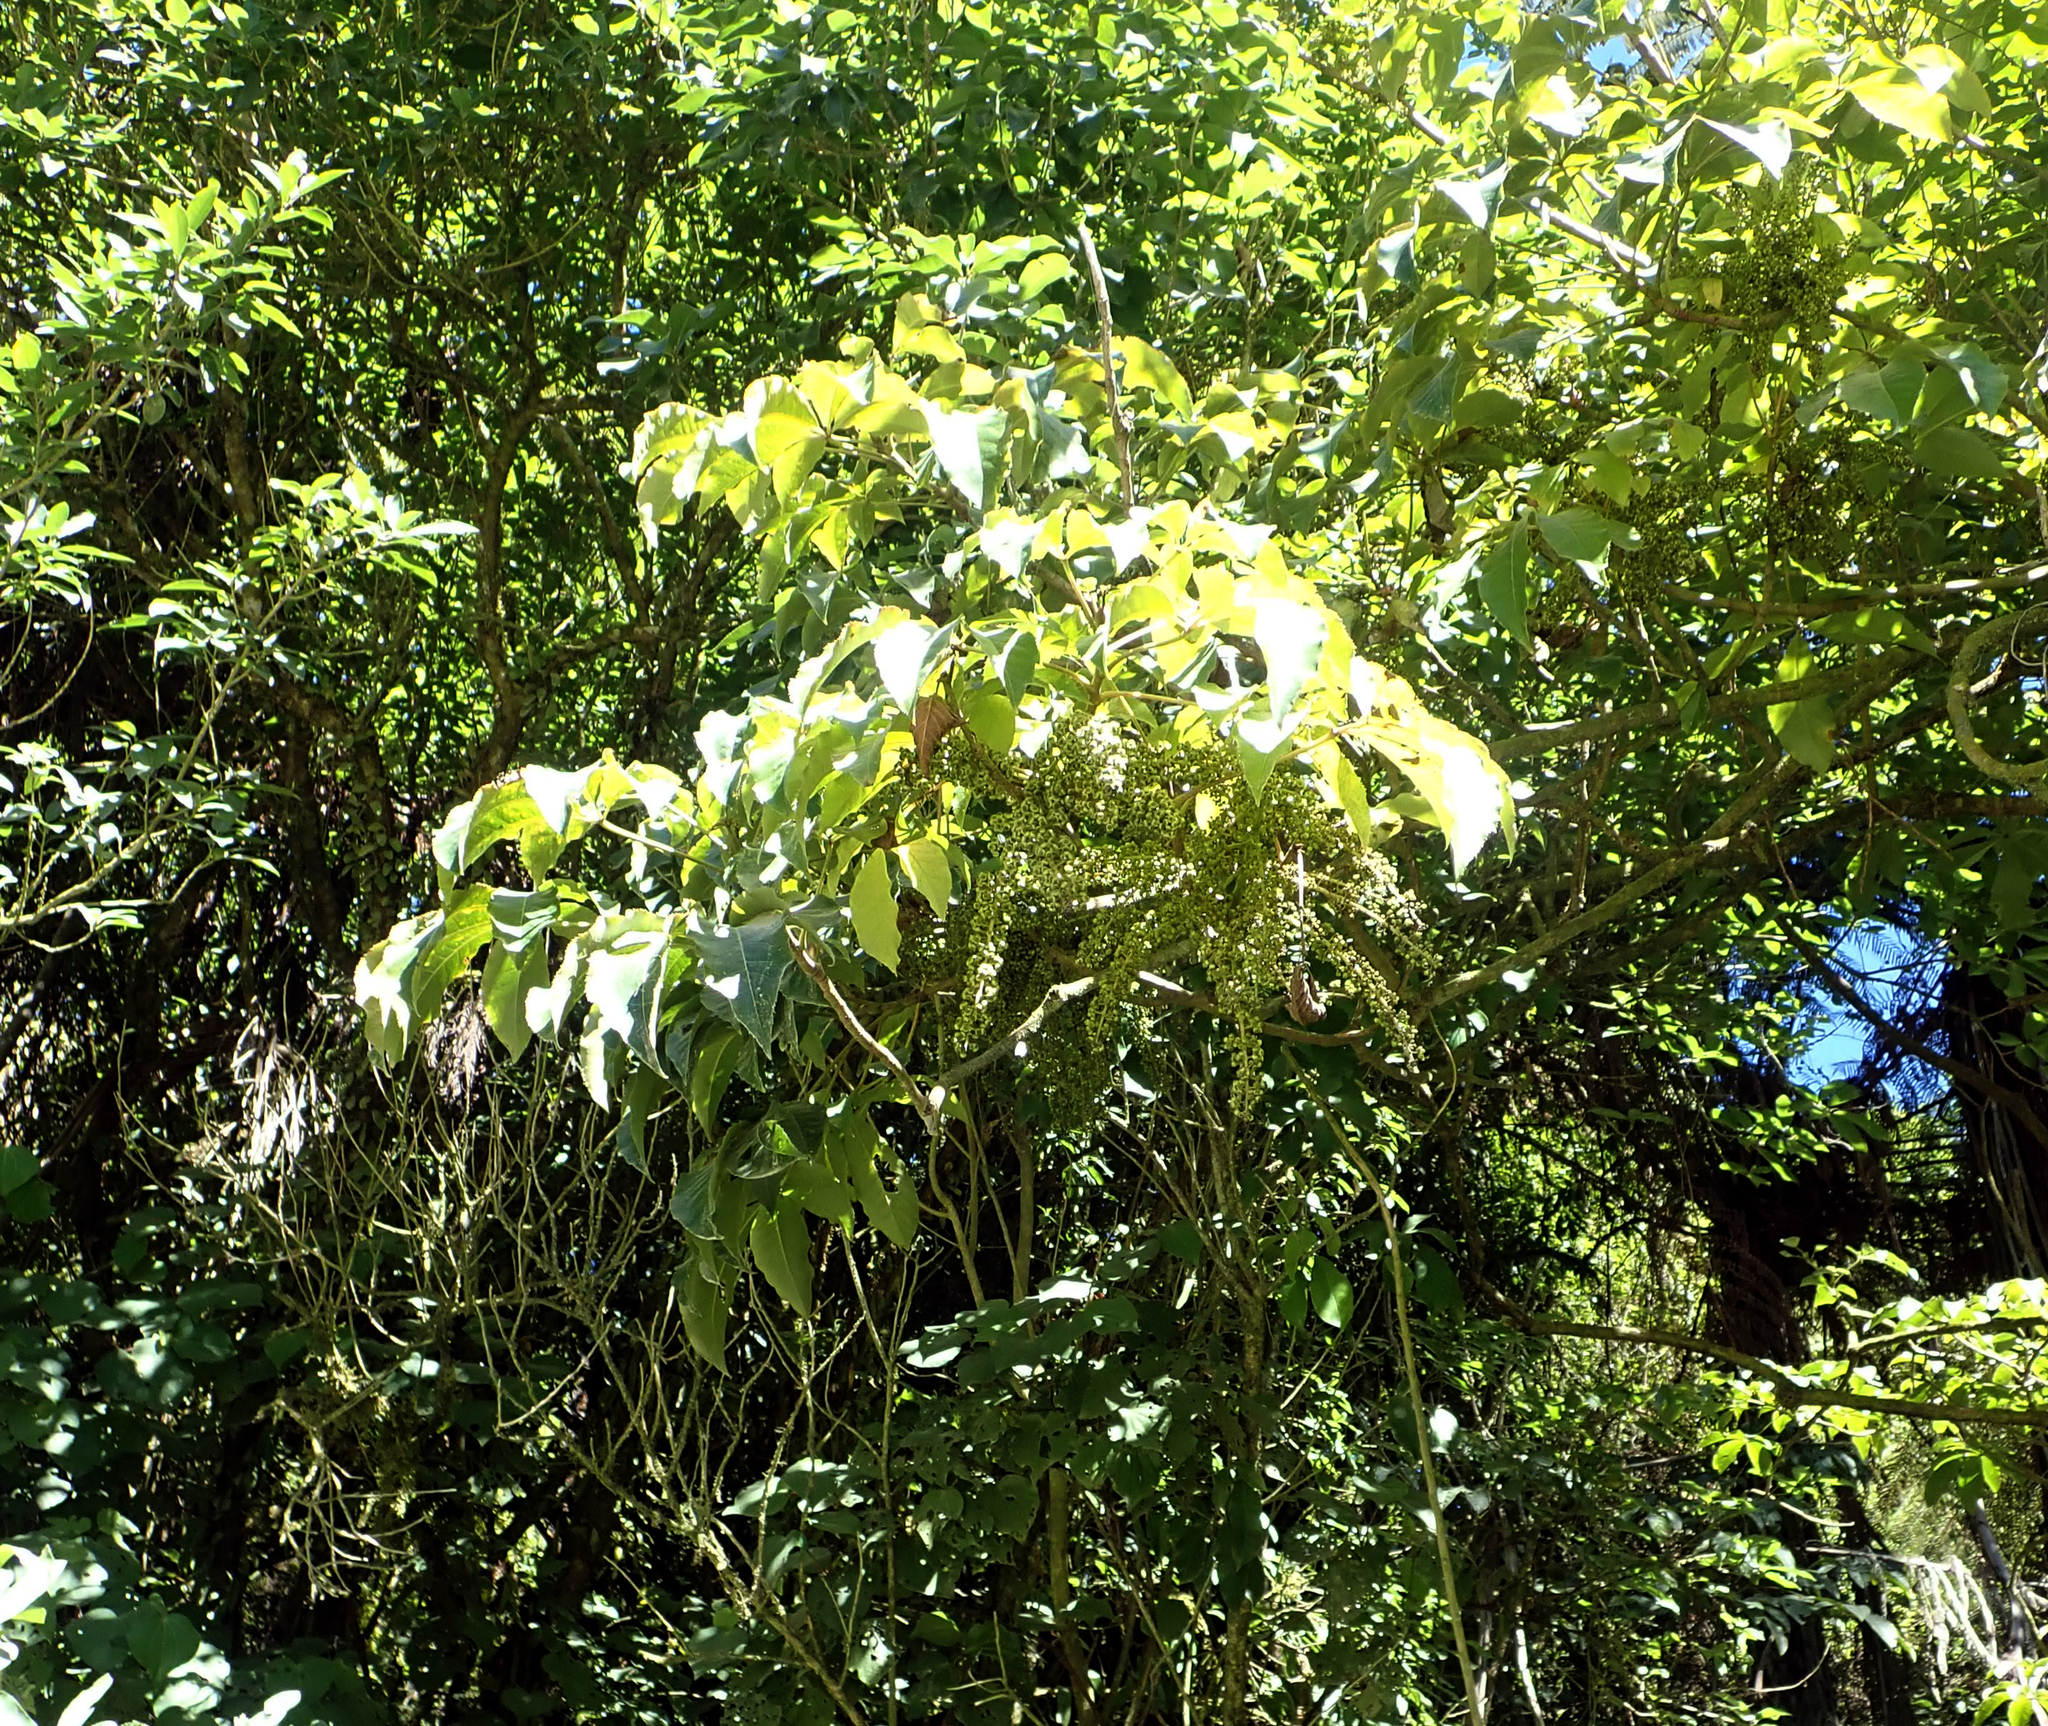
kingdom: Plantae
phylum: Tracheophyta
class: Magnoliopsida
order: Apiales
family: Araliaceae
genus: Schefflera
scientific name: Schefflera digitata
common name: Pate
